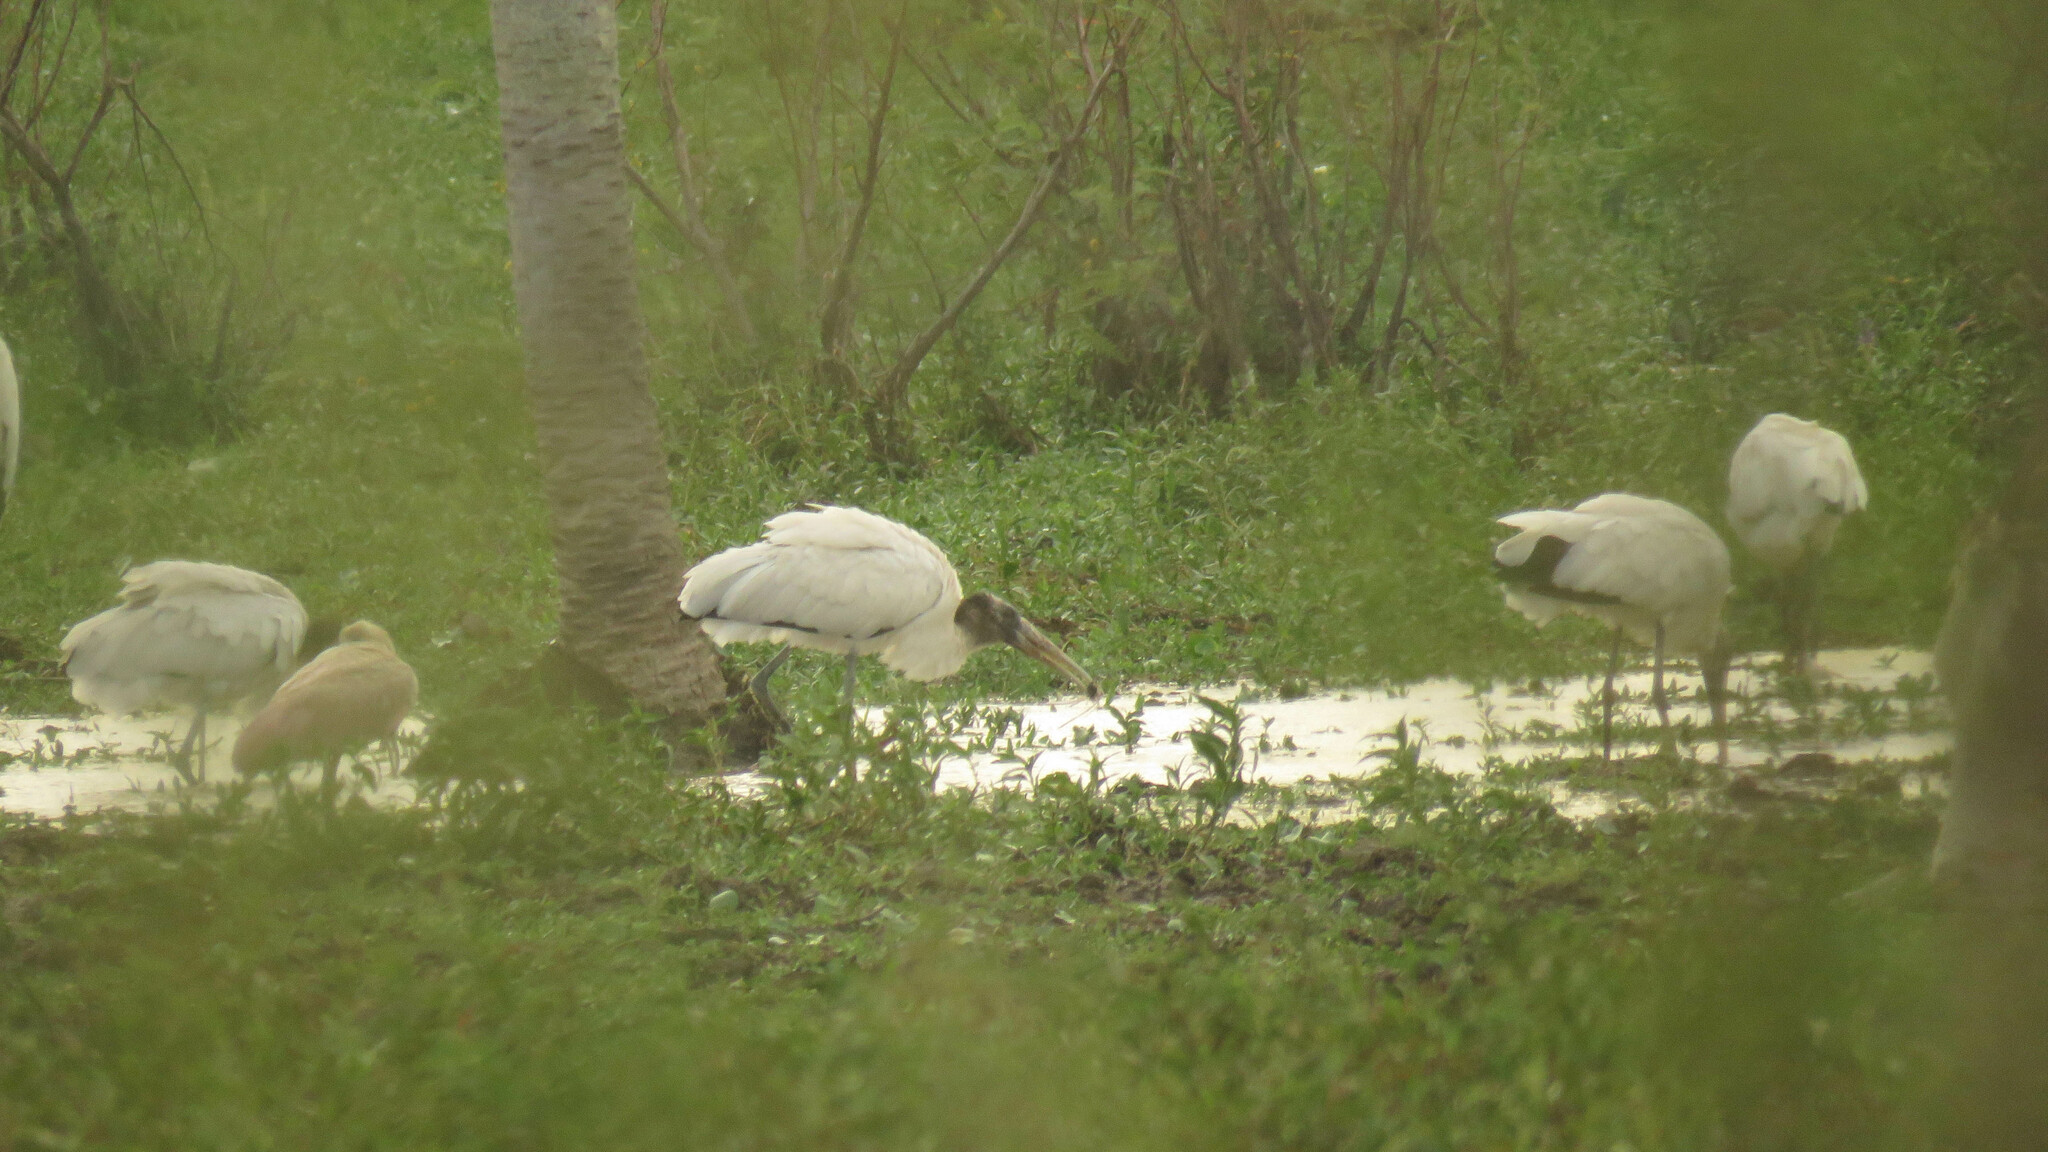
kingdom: Animalia
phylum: Chordata
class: Aves
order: Ciconiiformes
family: Ciconiidae
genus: Mycteria
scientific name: Mycteria americana
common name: Wood stork
